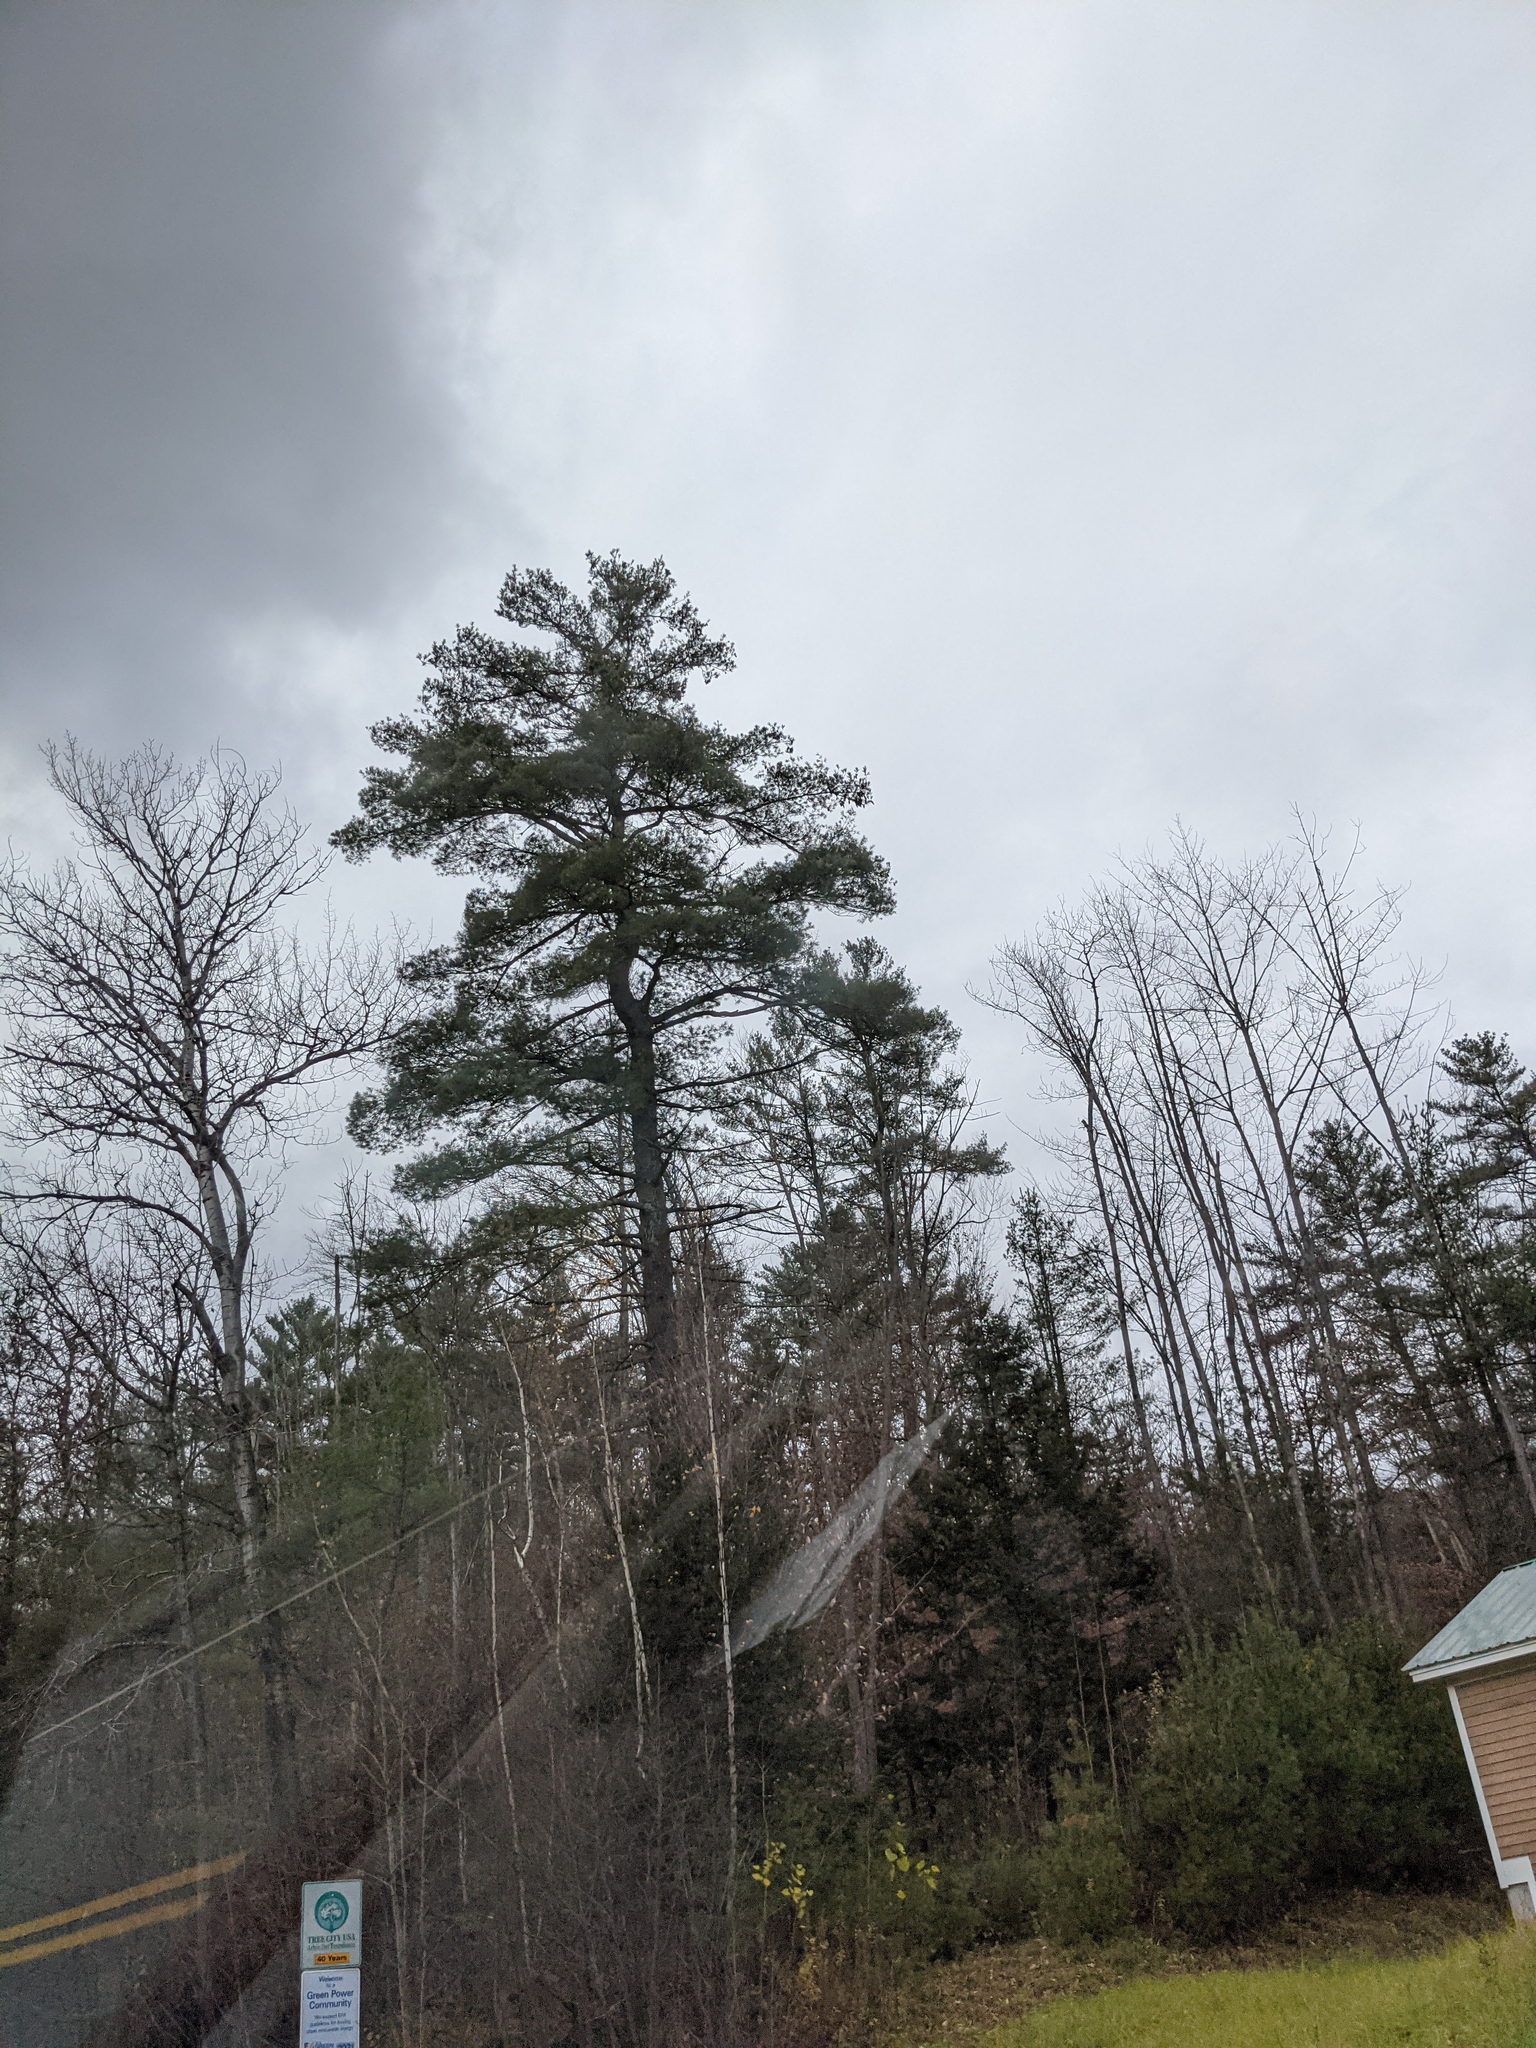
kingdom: Plantae
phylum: Tracheophyta
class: Pinopsida
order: Pinales
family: Pinaceae
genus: Pinus
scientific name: Pinus strobus
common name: Weymouth pine
